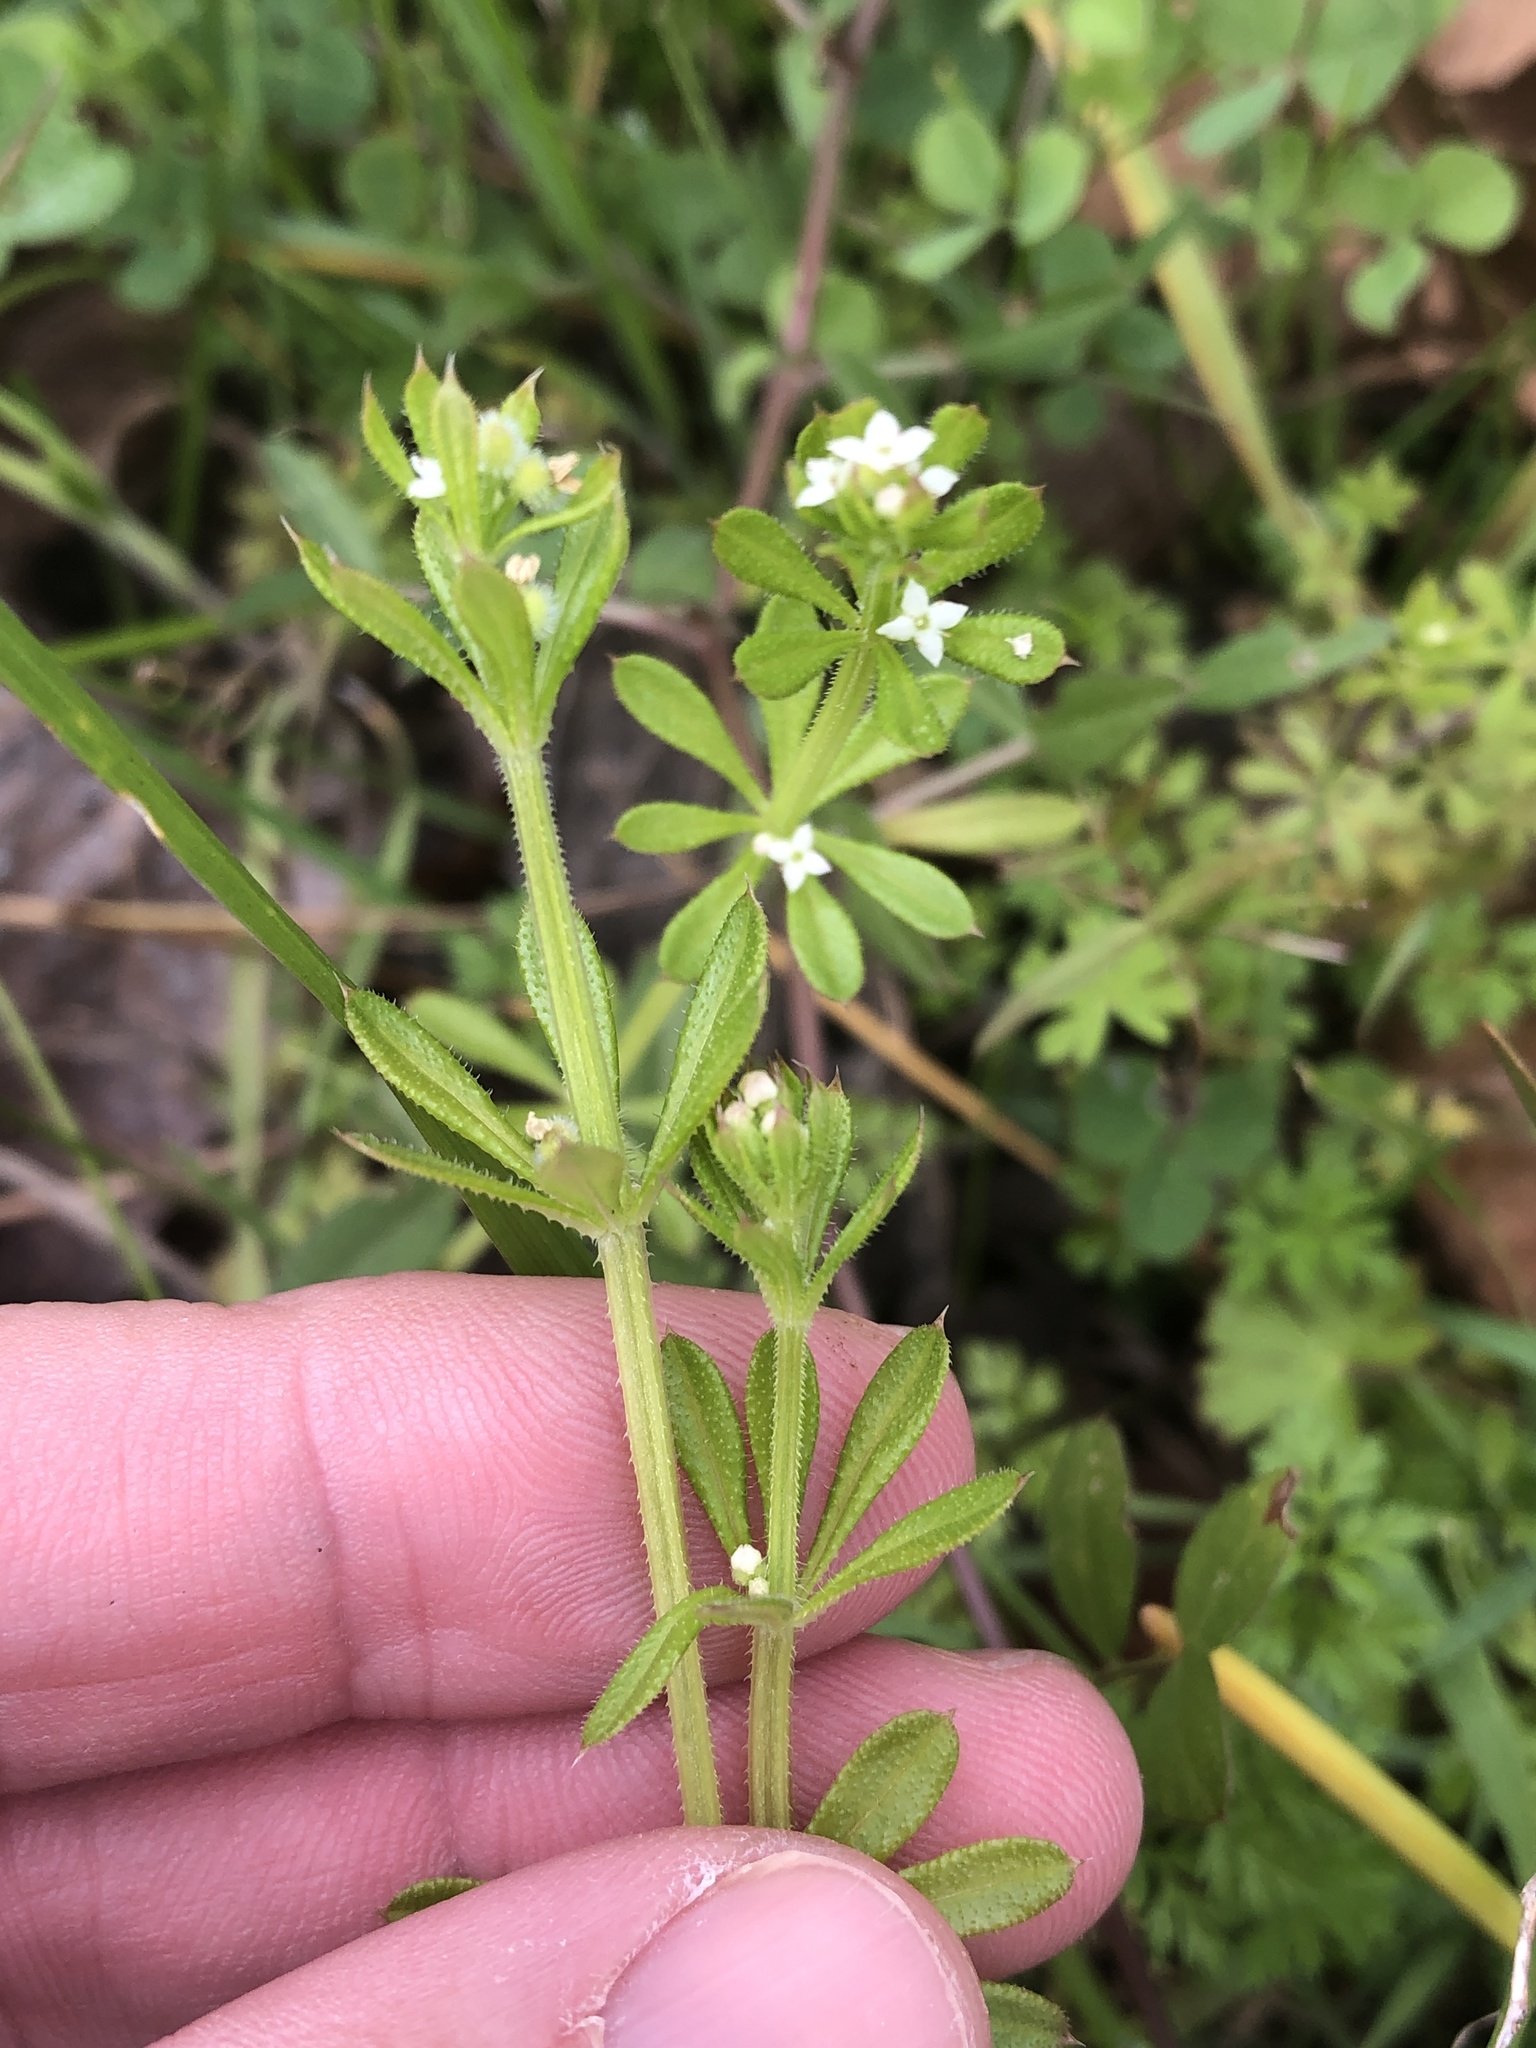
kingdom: Plantae
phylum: Tracheophyta
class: Magnoliopsida
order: Gentianales
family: Rubiaceae
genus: Galium
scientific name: Galium aparine
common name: Cleavers
